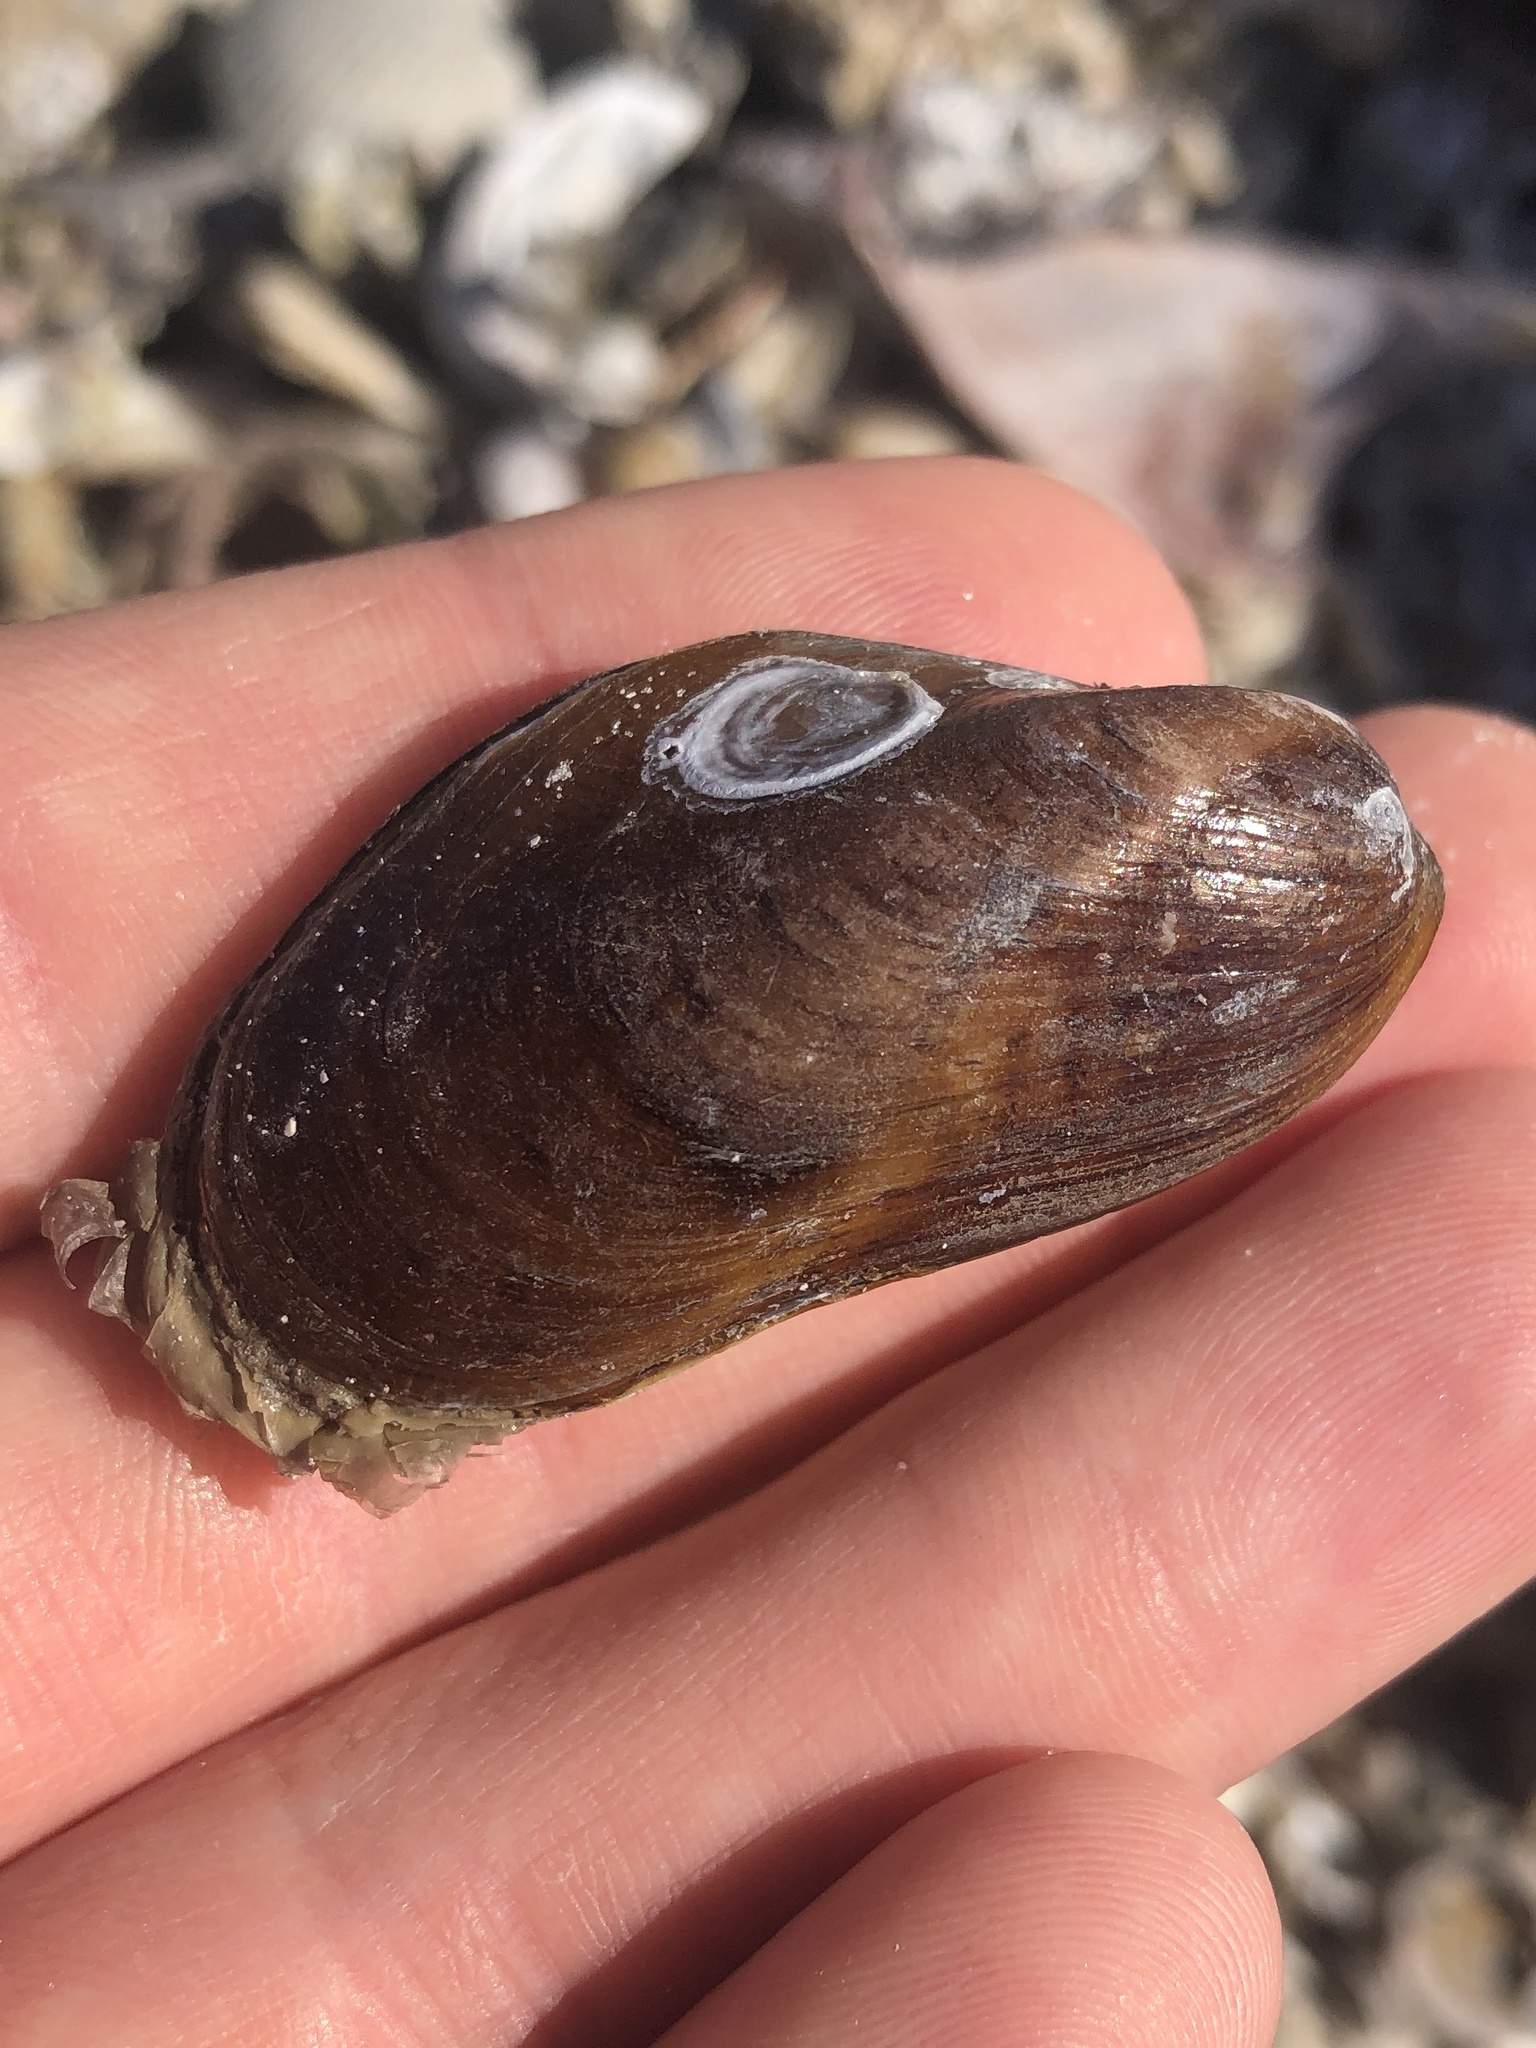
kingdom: Animalia
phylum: Mollusca
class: Bivalvia
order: Mytilida
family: Mytilidae
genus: Modiolus
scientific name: Modiolus squamosus
